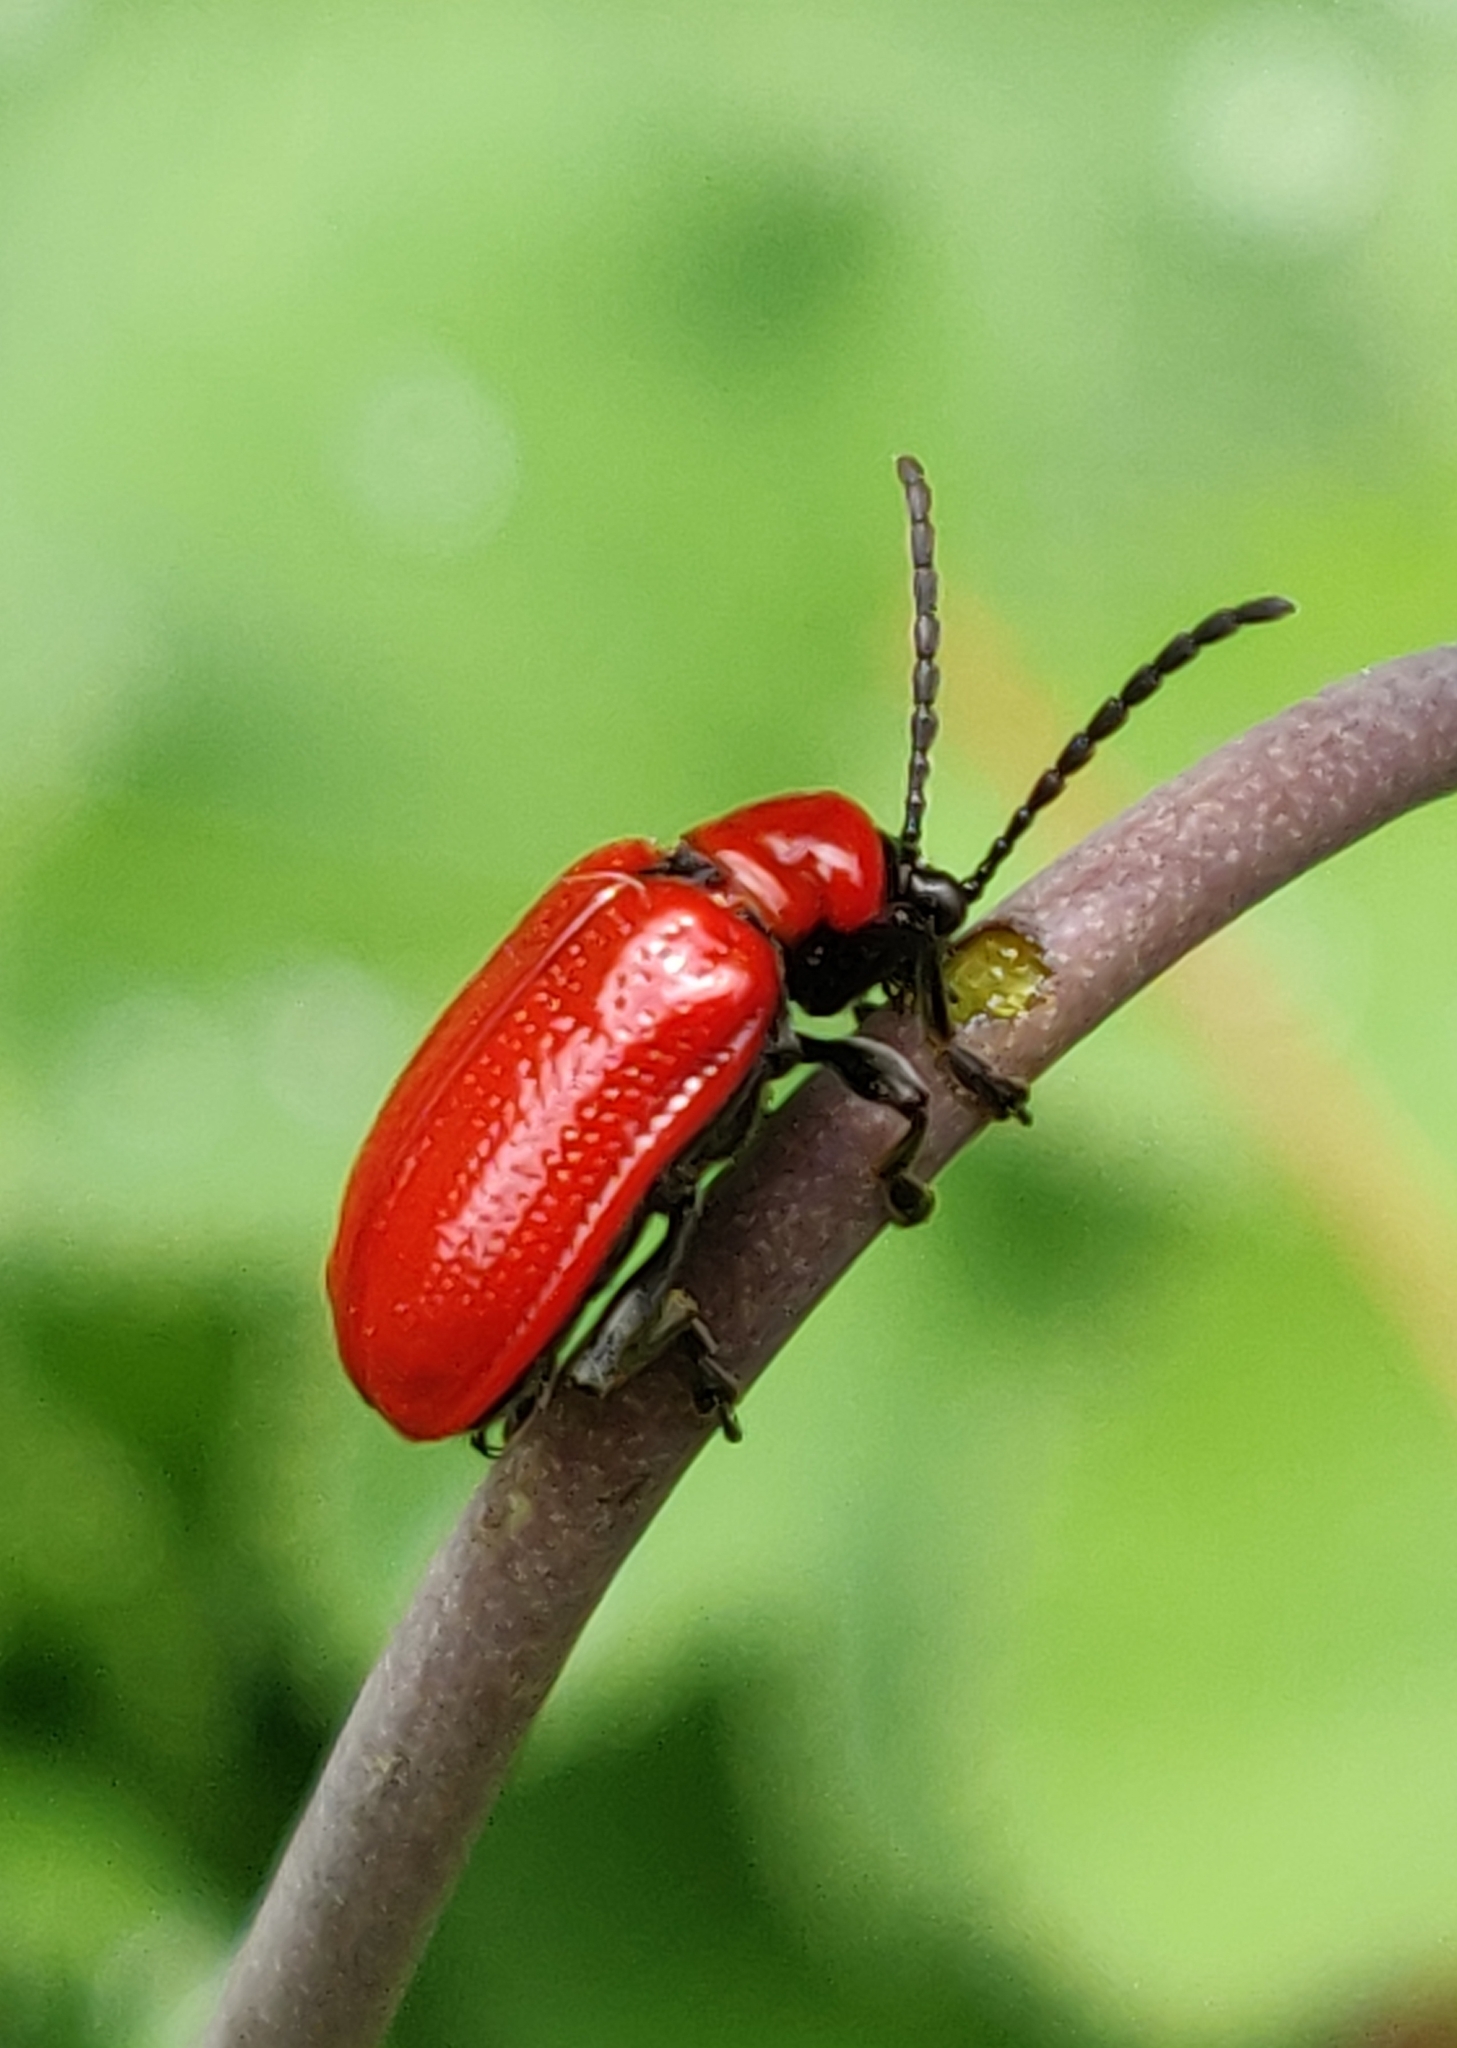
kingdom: Animalia
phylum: Arthropoda
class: Insecta
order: Coleoptera
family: Chrysomelidae
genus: Lilioceris
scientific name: Lilioceris lilii
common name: Lily beetle
